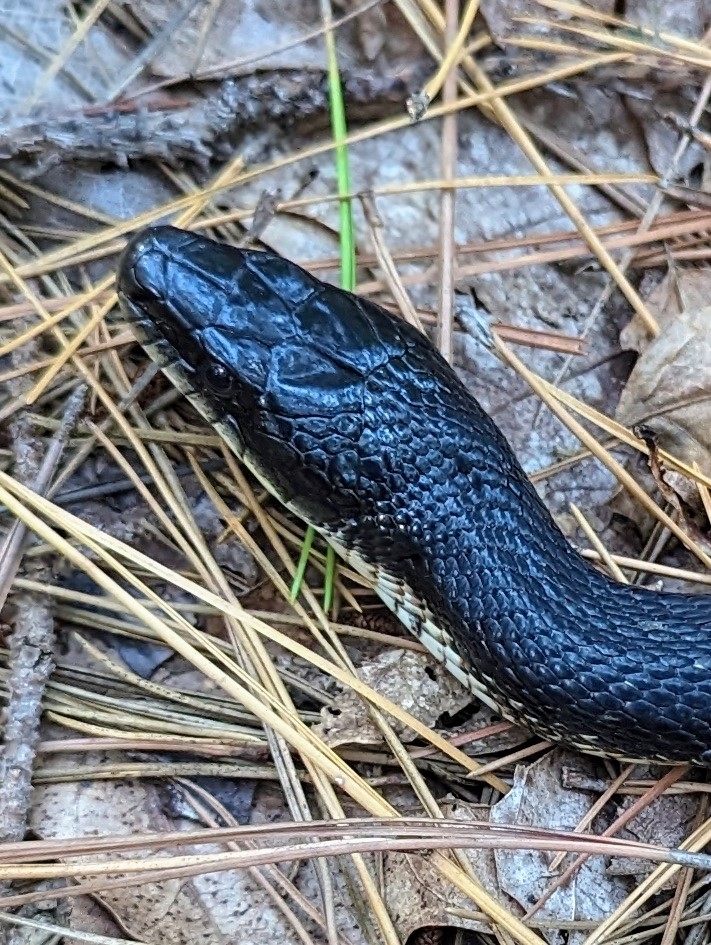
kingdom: Animalia
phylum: Chordata
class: Squamata
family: Colubridae
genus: Pantherophis
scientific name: Pantherophis obsoletus
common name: Black rat snake
